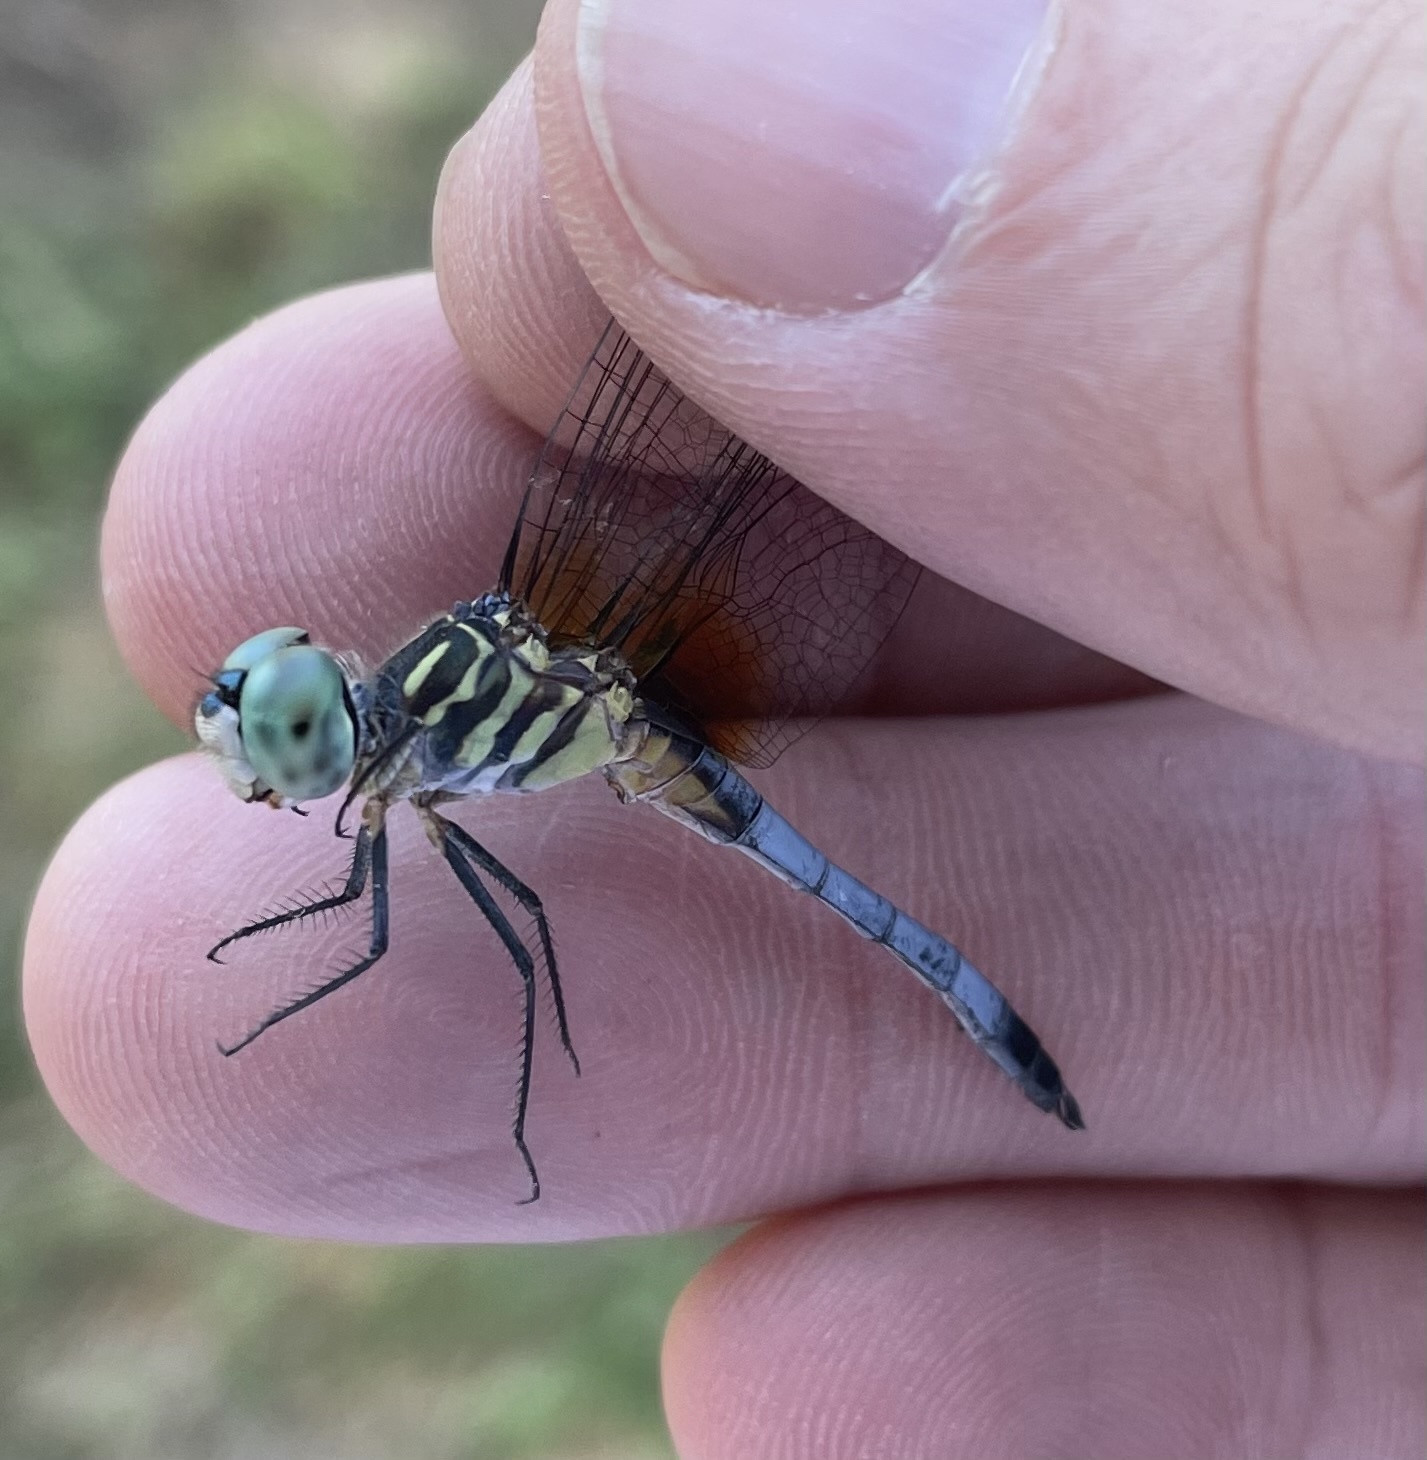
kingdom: Animalia
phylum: Arthropoda
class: Insecta
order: Odonata
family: Libellulidae
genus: Pachydiplax
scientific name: Pachydiplax longipennis
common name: Blue dasher
